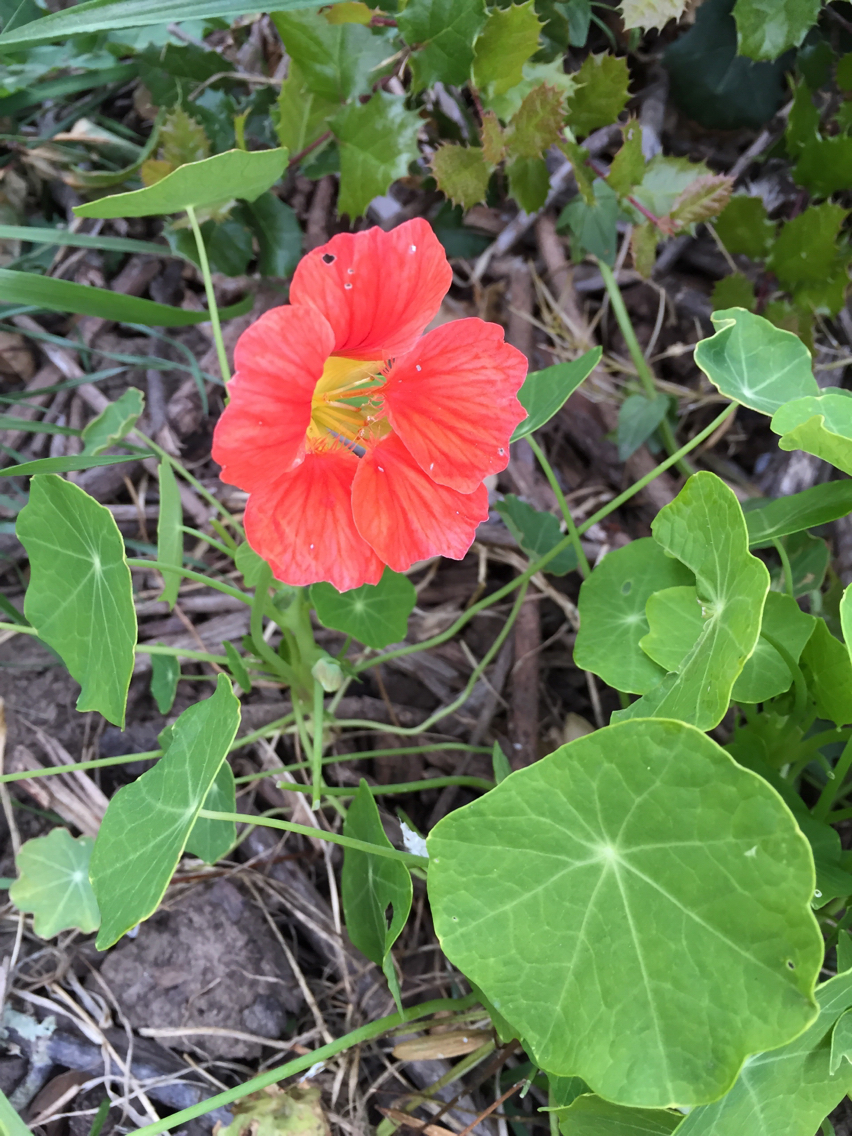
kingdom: Plantae
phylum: Tracheophyta
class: Magnoliopsida
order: Brassicales
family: Tropaeolaceae
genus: Tropaeolum
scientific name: Tropaeolum majus
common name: Nasturtium
